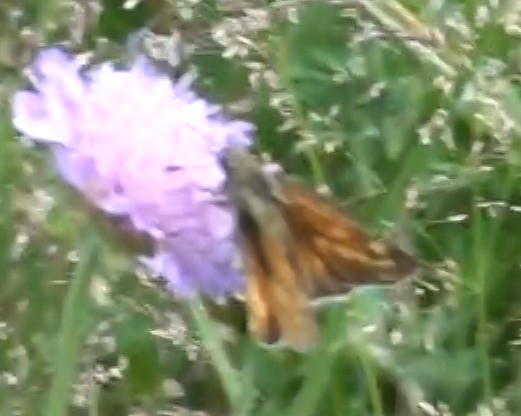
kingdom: Animalia
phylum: Arthropoda
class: Insecta
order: Lepidoptera
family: Hesperiidae
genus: Ochlodes
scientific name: Ochlodes venata
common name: Large skipper
